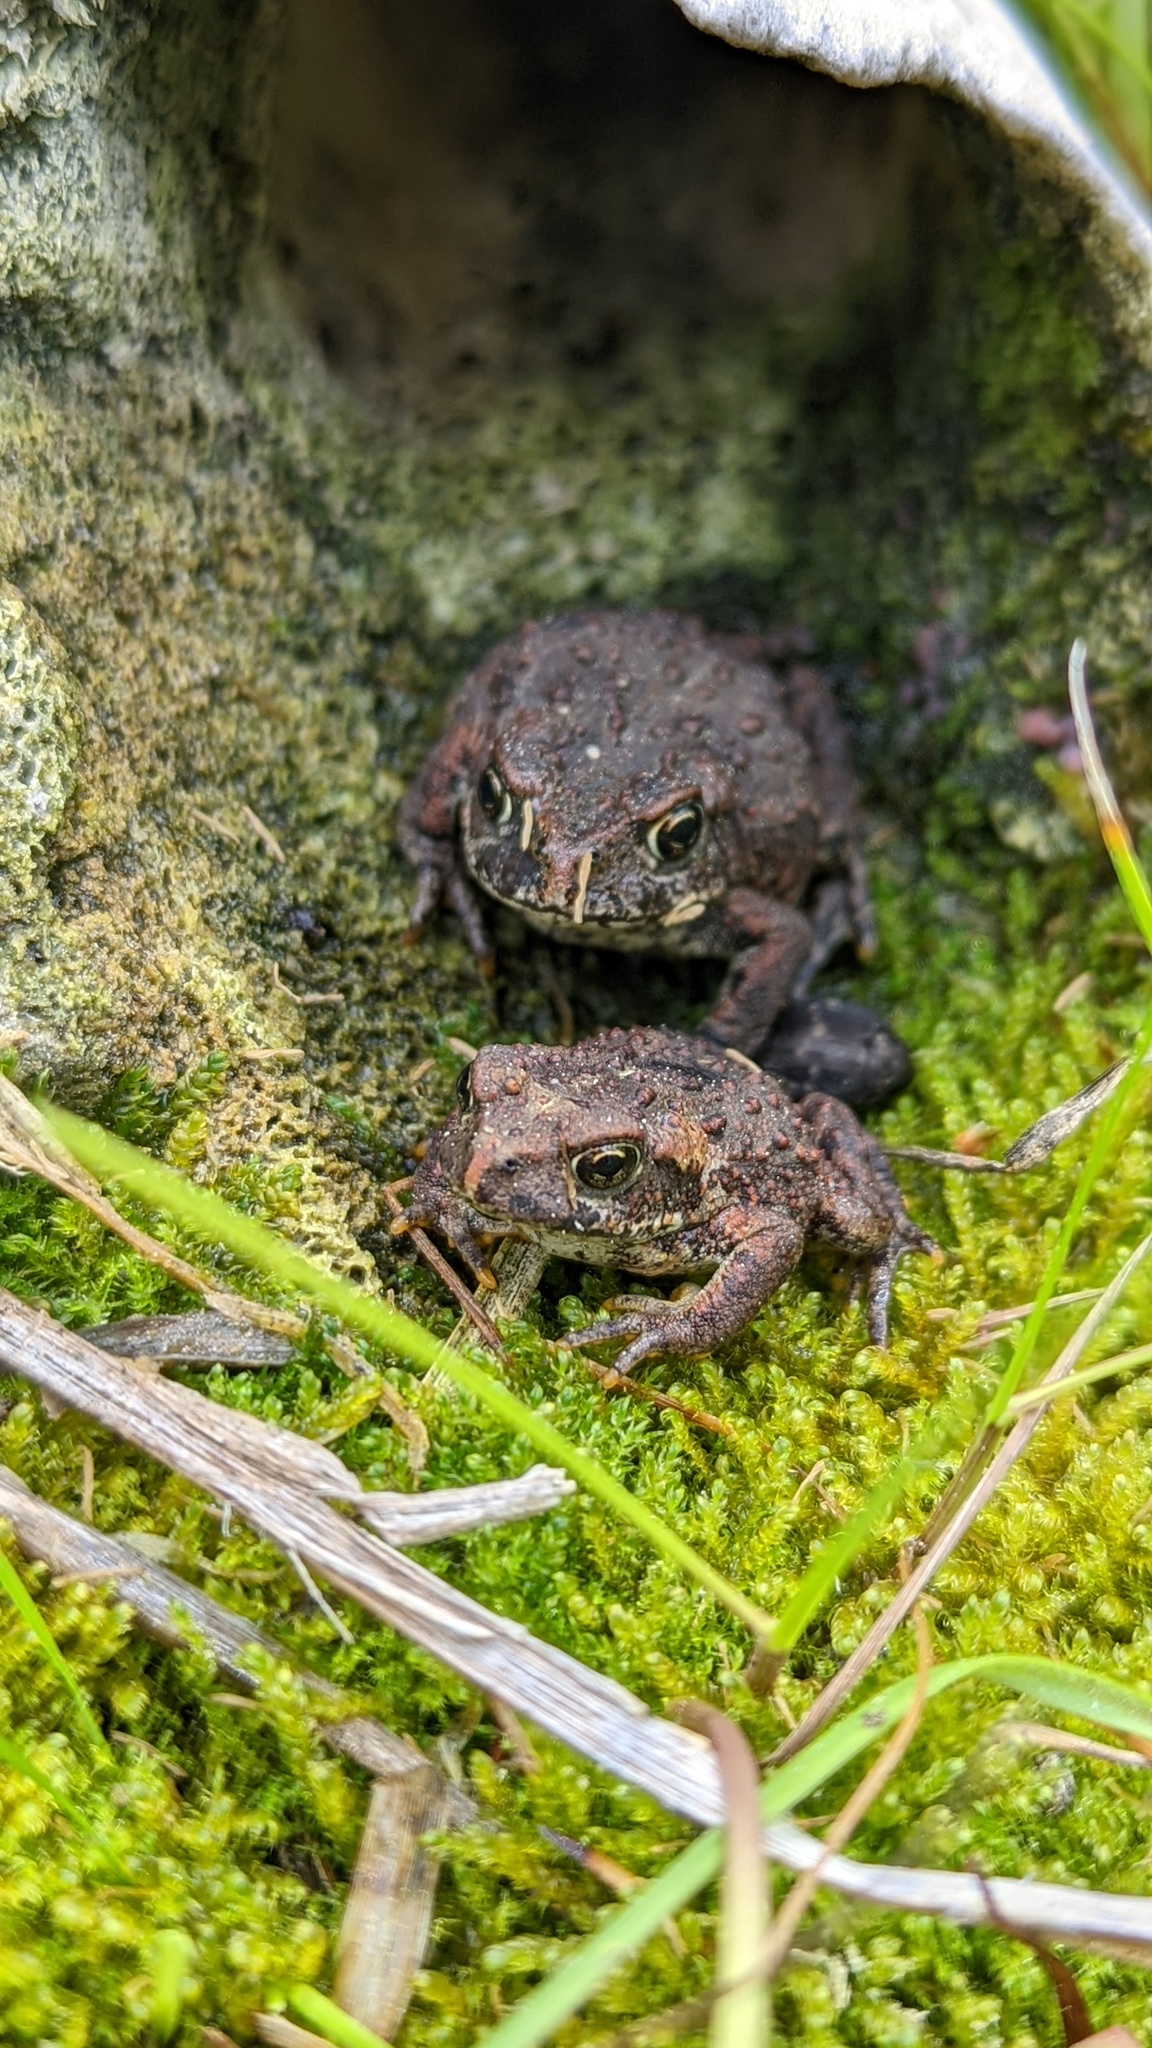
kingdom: Animalia
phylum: Chordata
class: Amphibia
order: Anura
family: Bufonidae
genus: Anaxyrus
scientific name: Anaxyrus boreas
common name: Western toad
